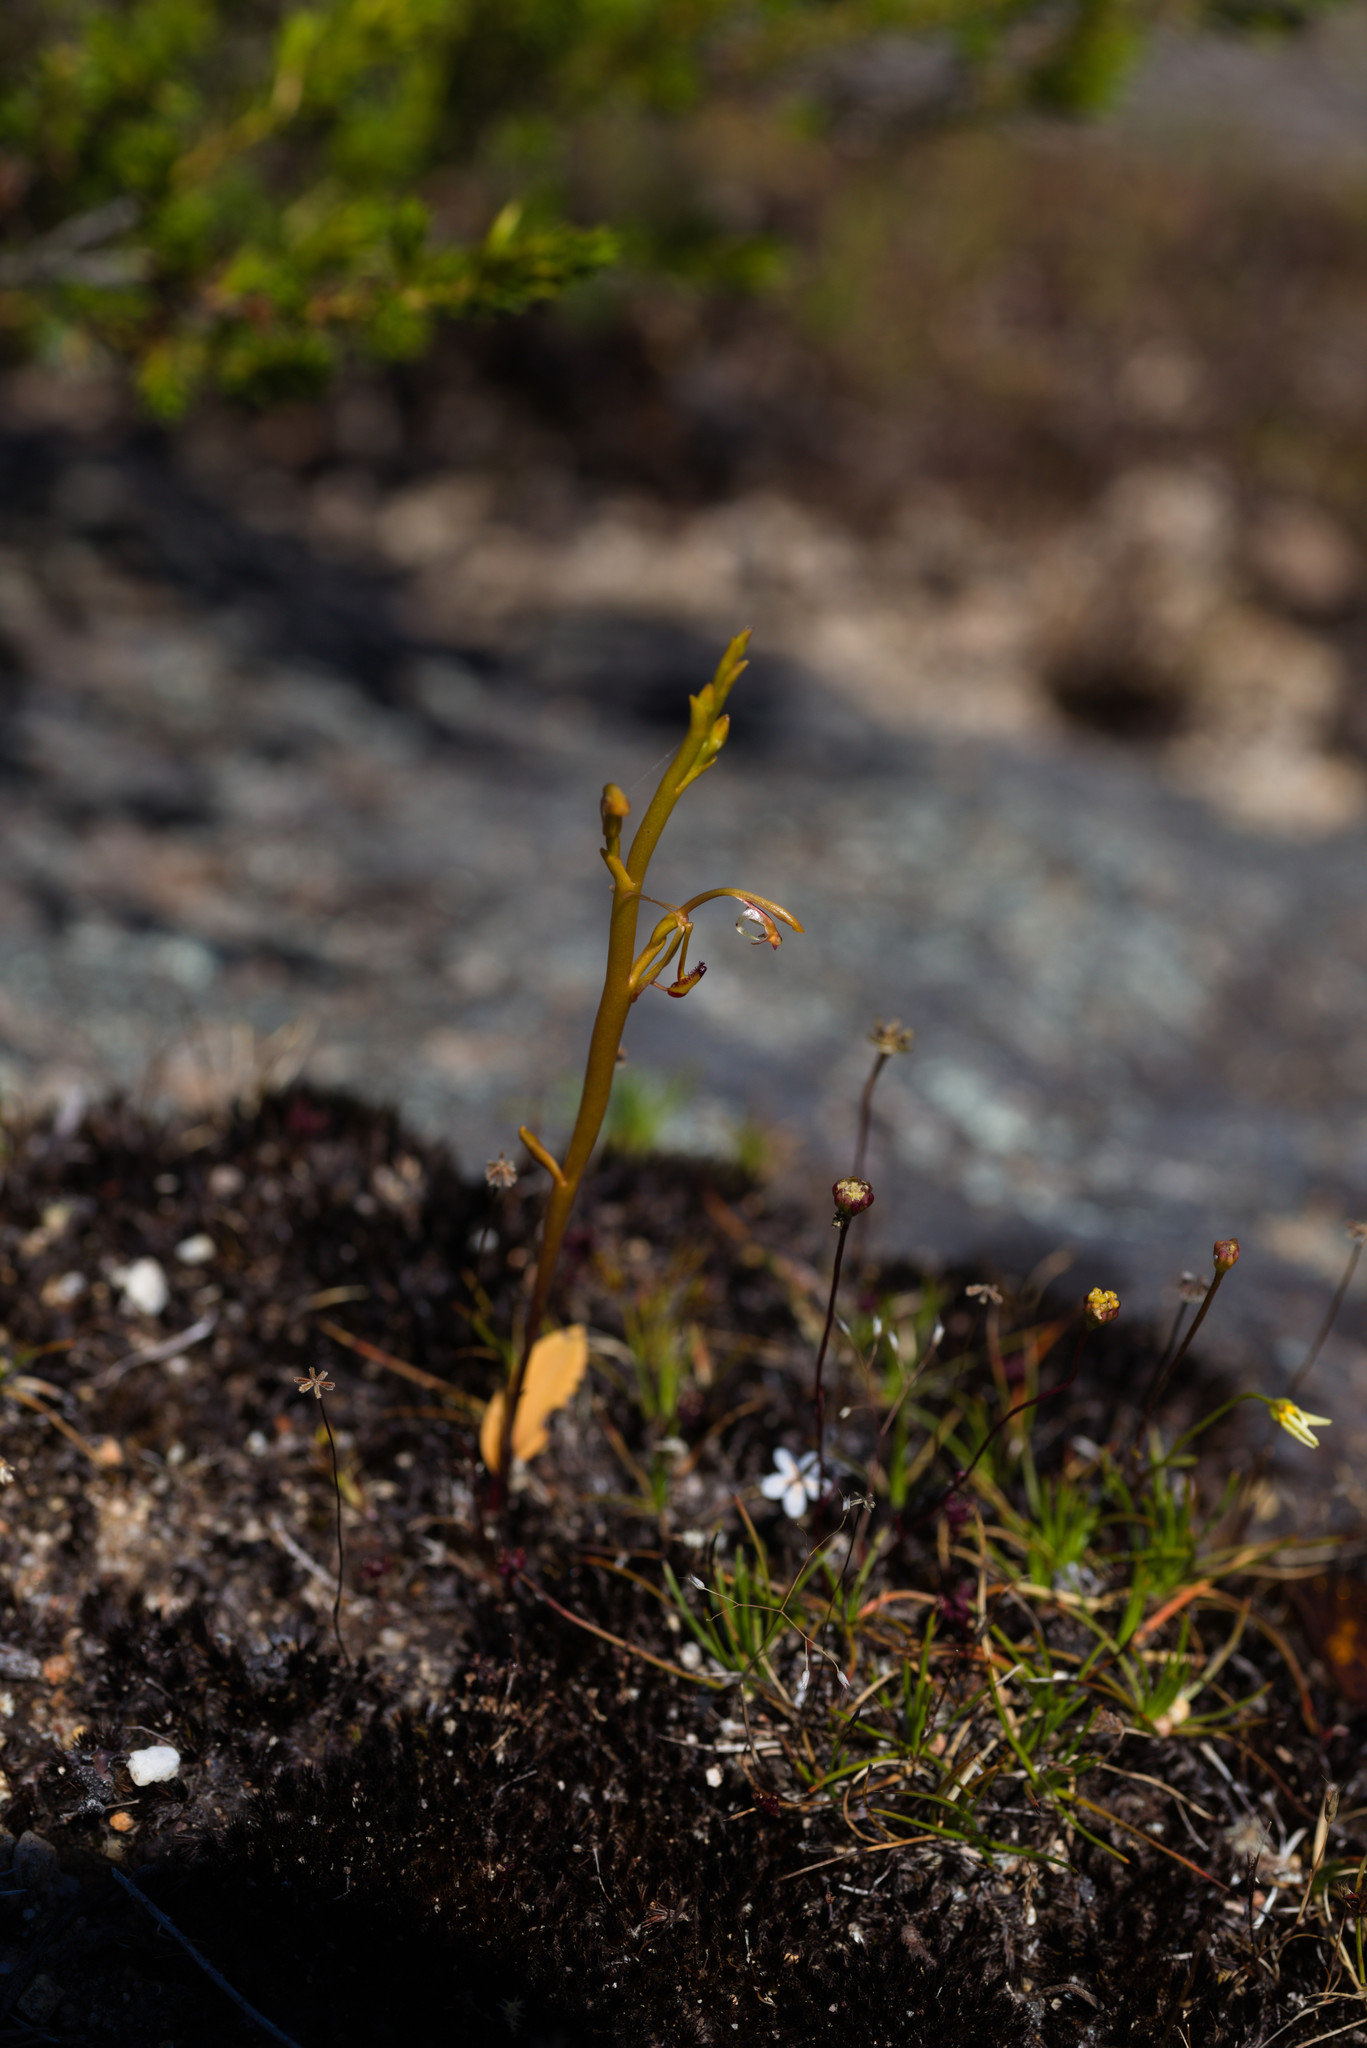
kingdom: Plantae
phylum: Tracheophyta
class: Liliopsida
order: Asparagales
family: Orchidaceae
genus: Spiculaea
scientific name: Spiculaea ciliata
